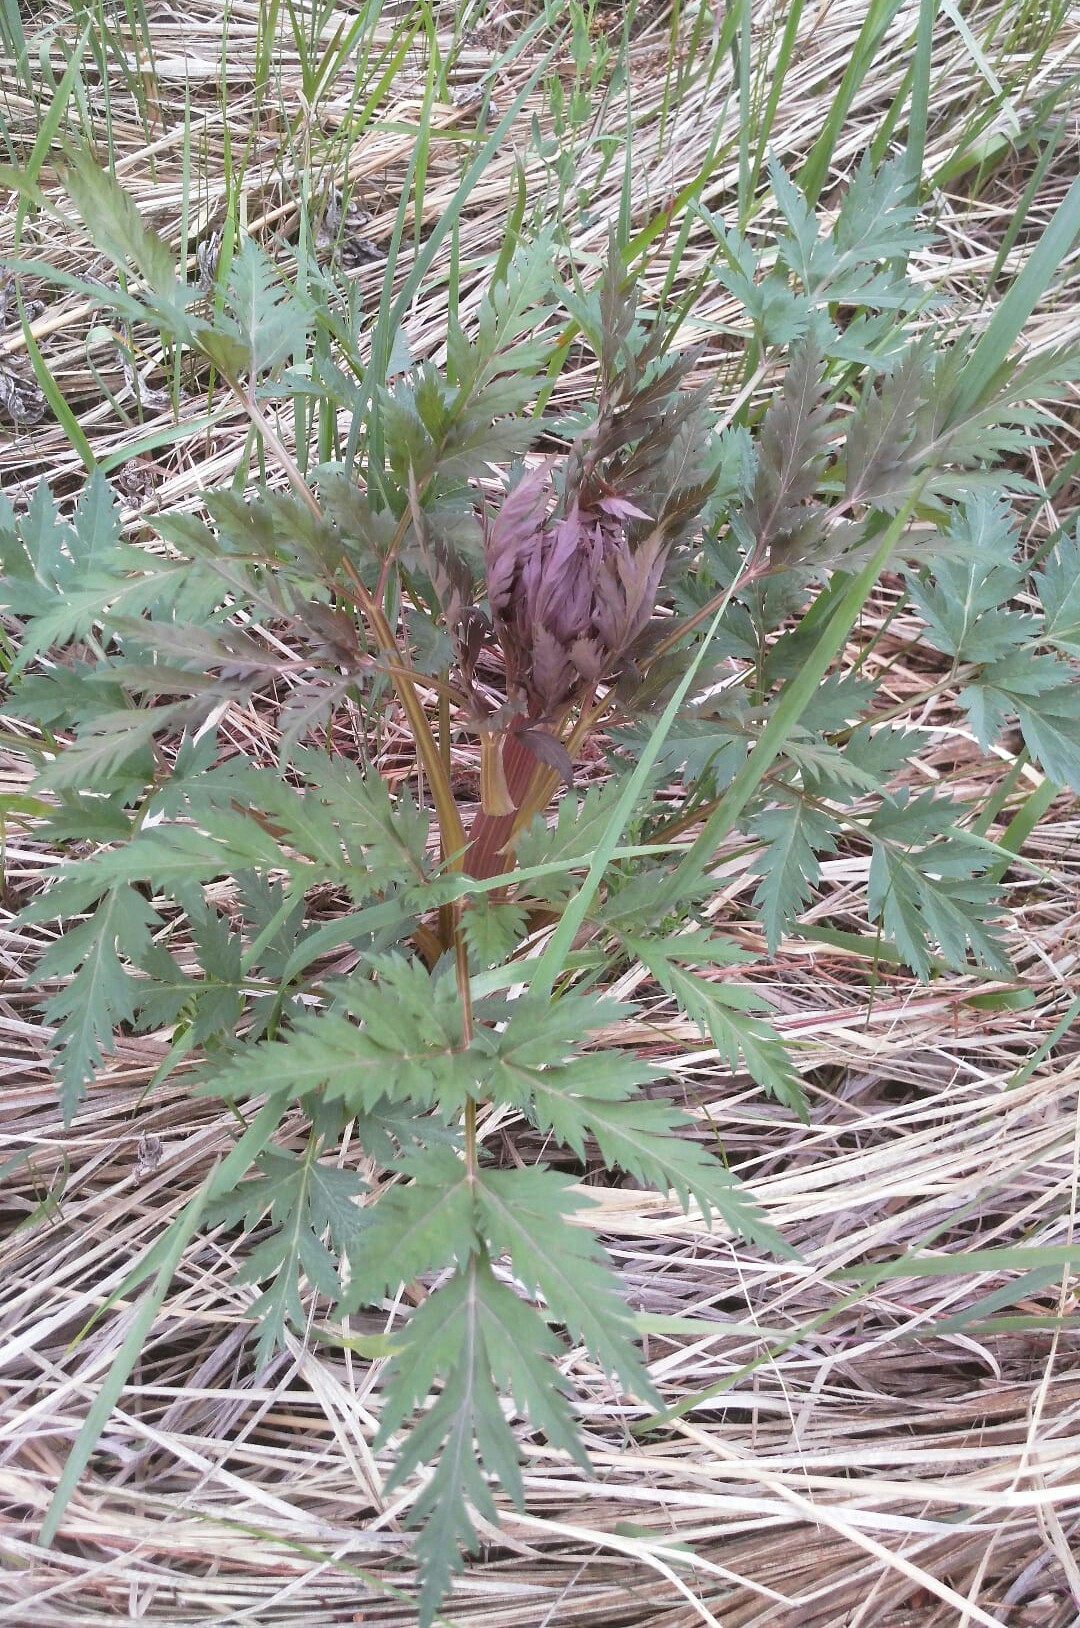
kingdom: Plantae
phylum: Tracheophyta
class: Magnoliopsida
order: Apiales
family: Apiaceae
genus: Pleurospermum
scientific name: Pleurospermum uralense
